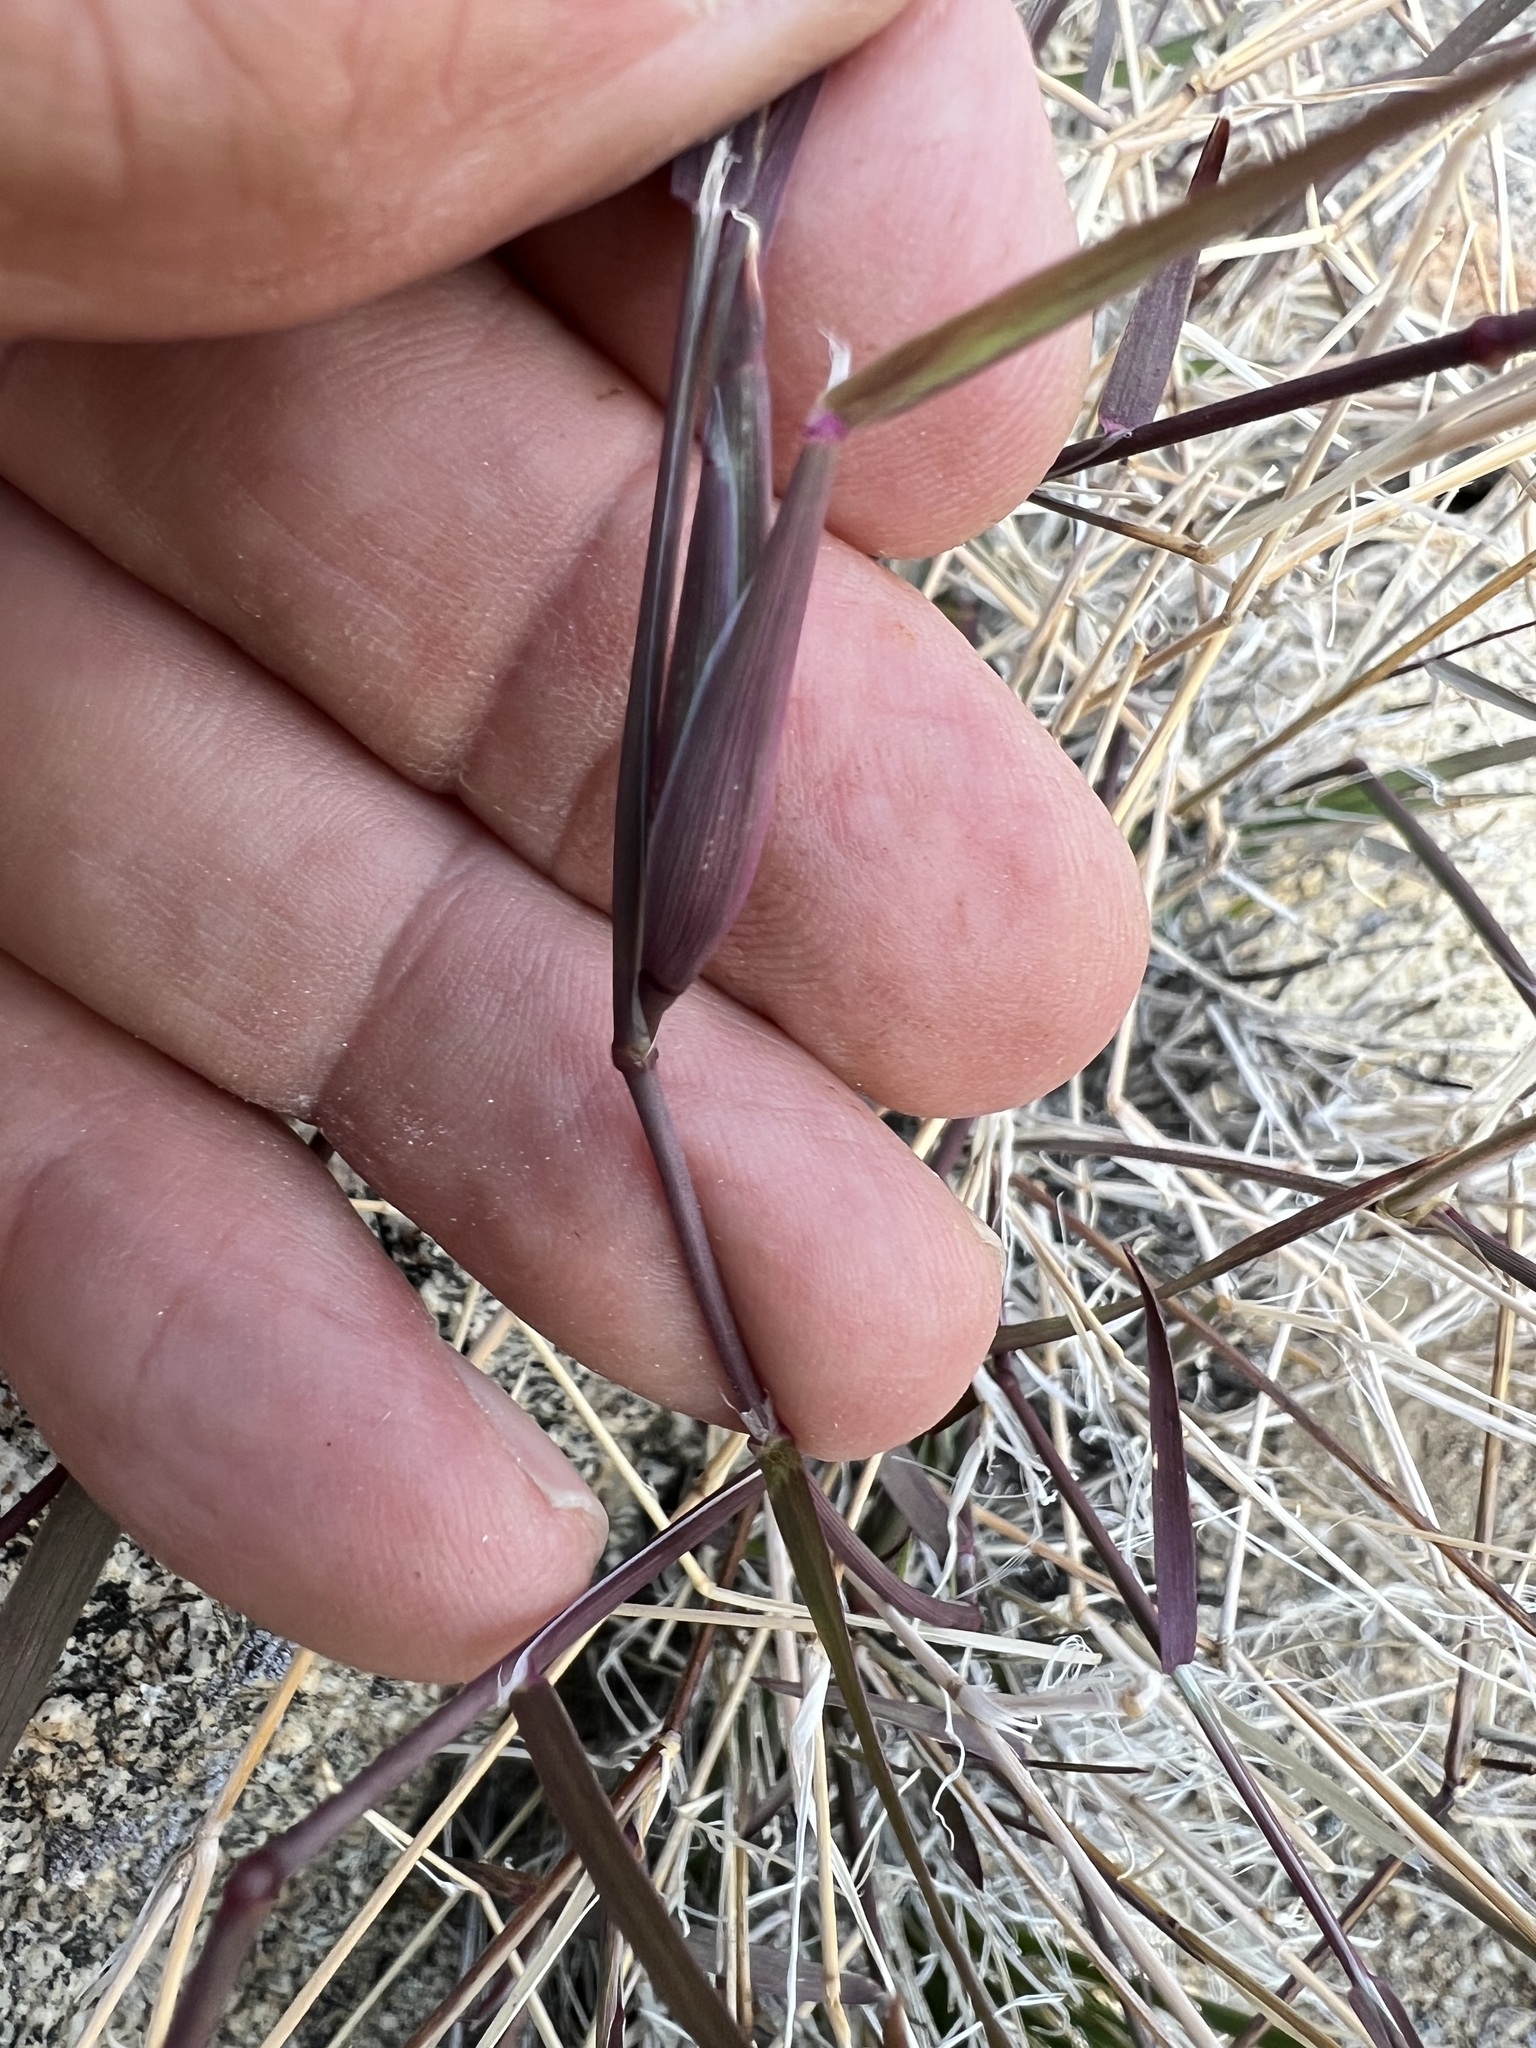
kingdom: Plantae
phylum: Tracheophyta
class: Liliopsida
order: Poales
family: Poaceae
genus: Muhlenbergia
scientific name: Muhlenbergia porteri
